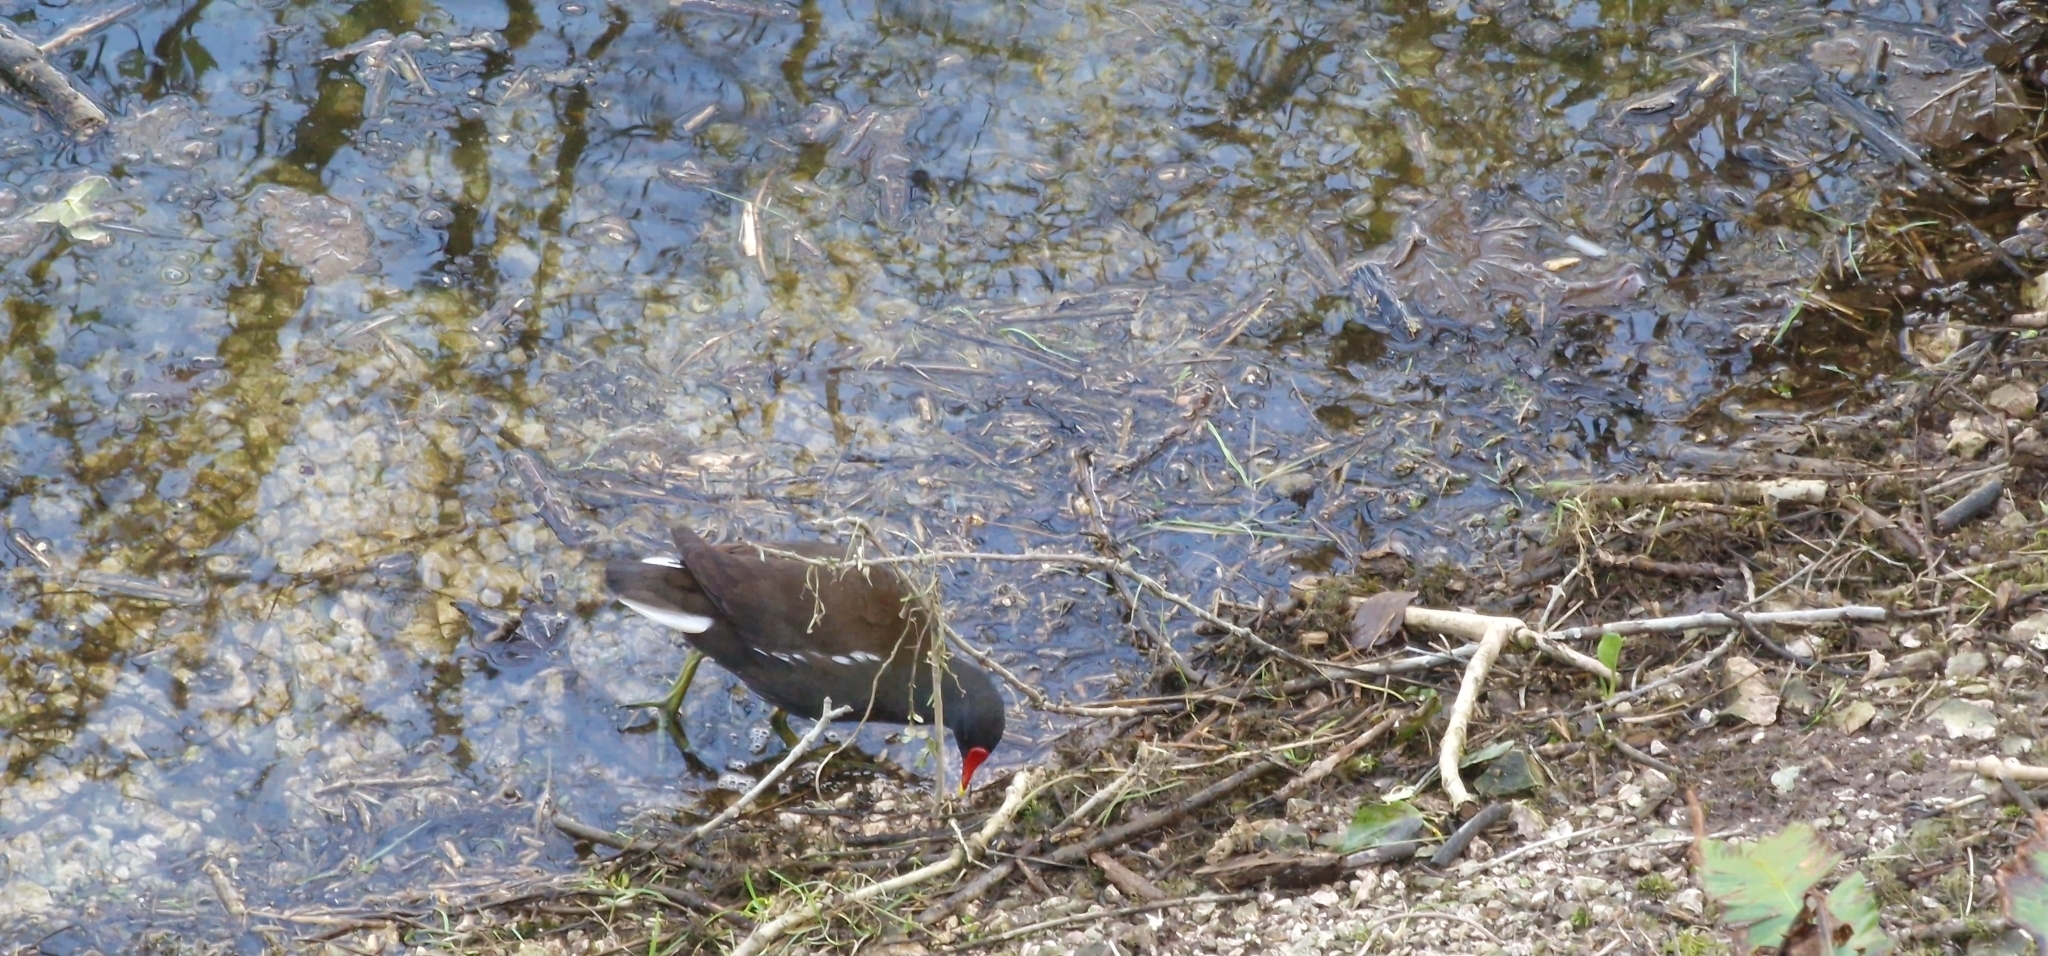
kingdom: Animalia
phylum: Chordata
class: Aves
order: Gruiformes
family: Rallidae
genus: Gallinula
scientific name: Gallinula chloropus
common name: Common moorhen
